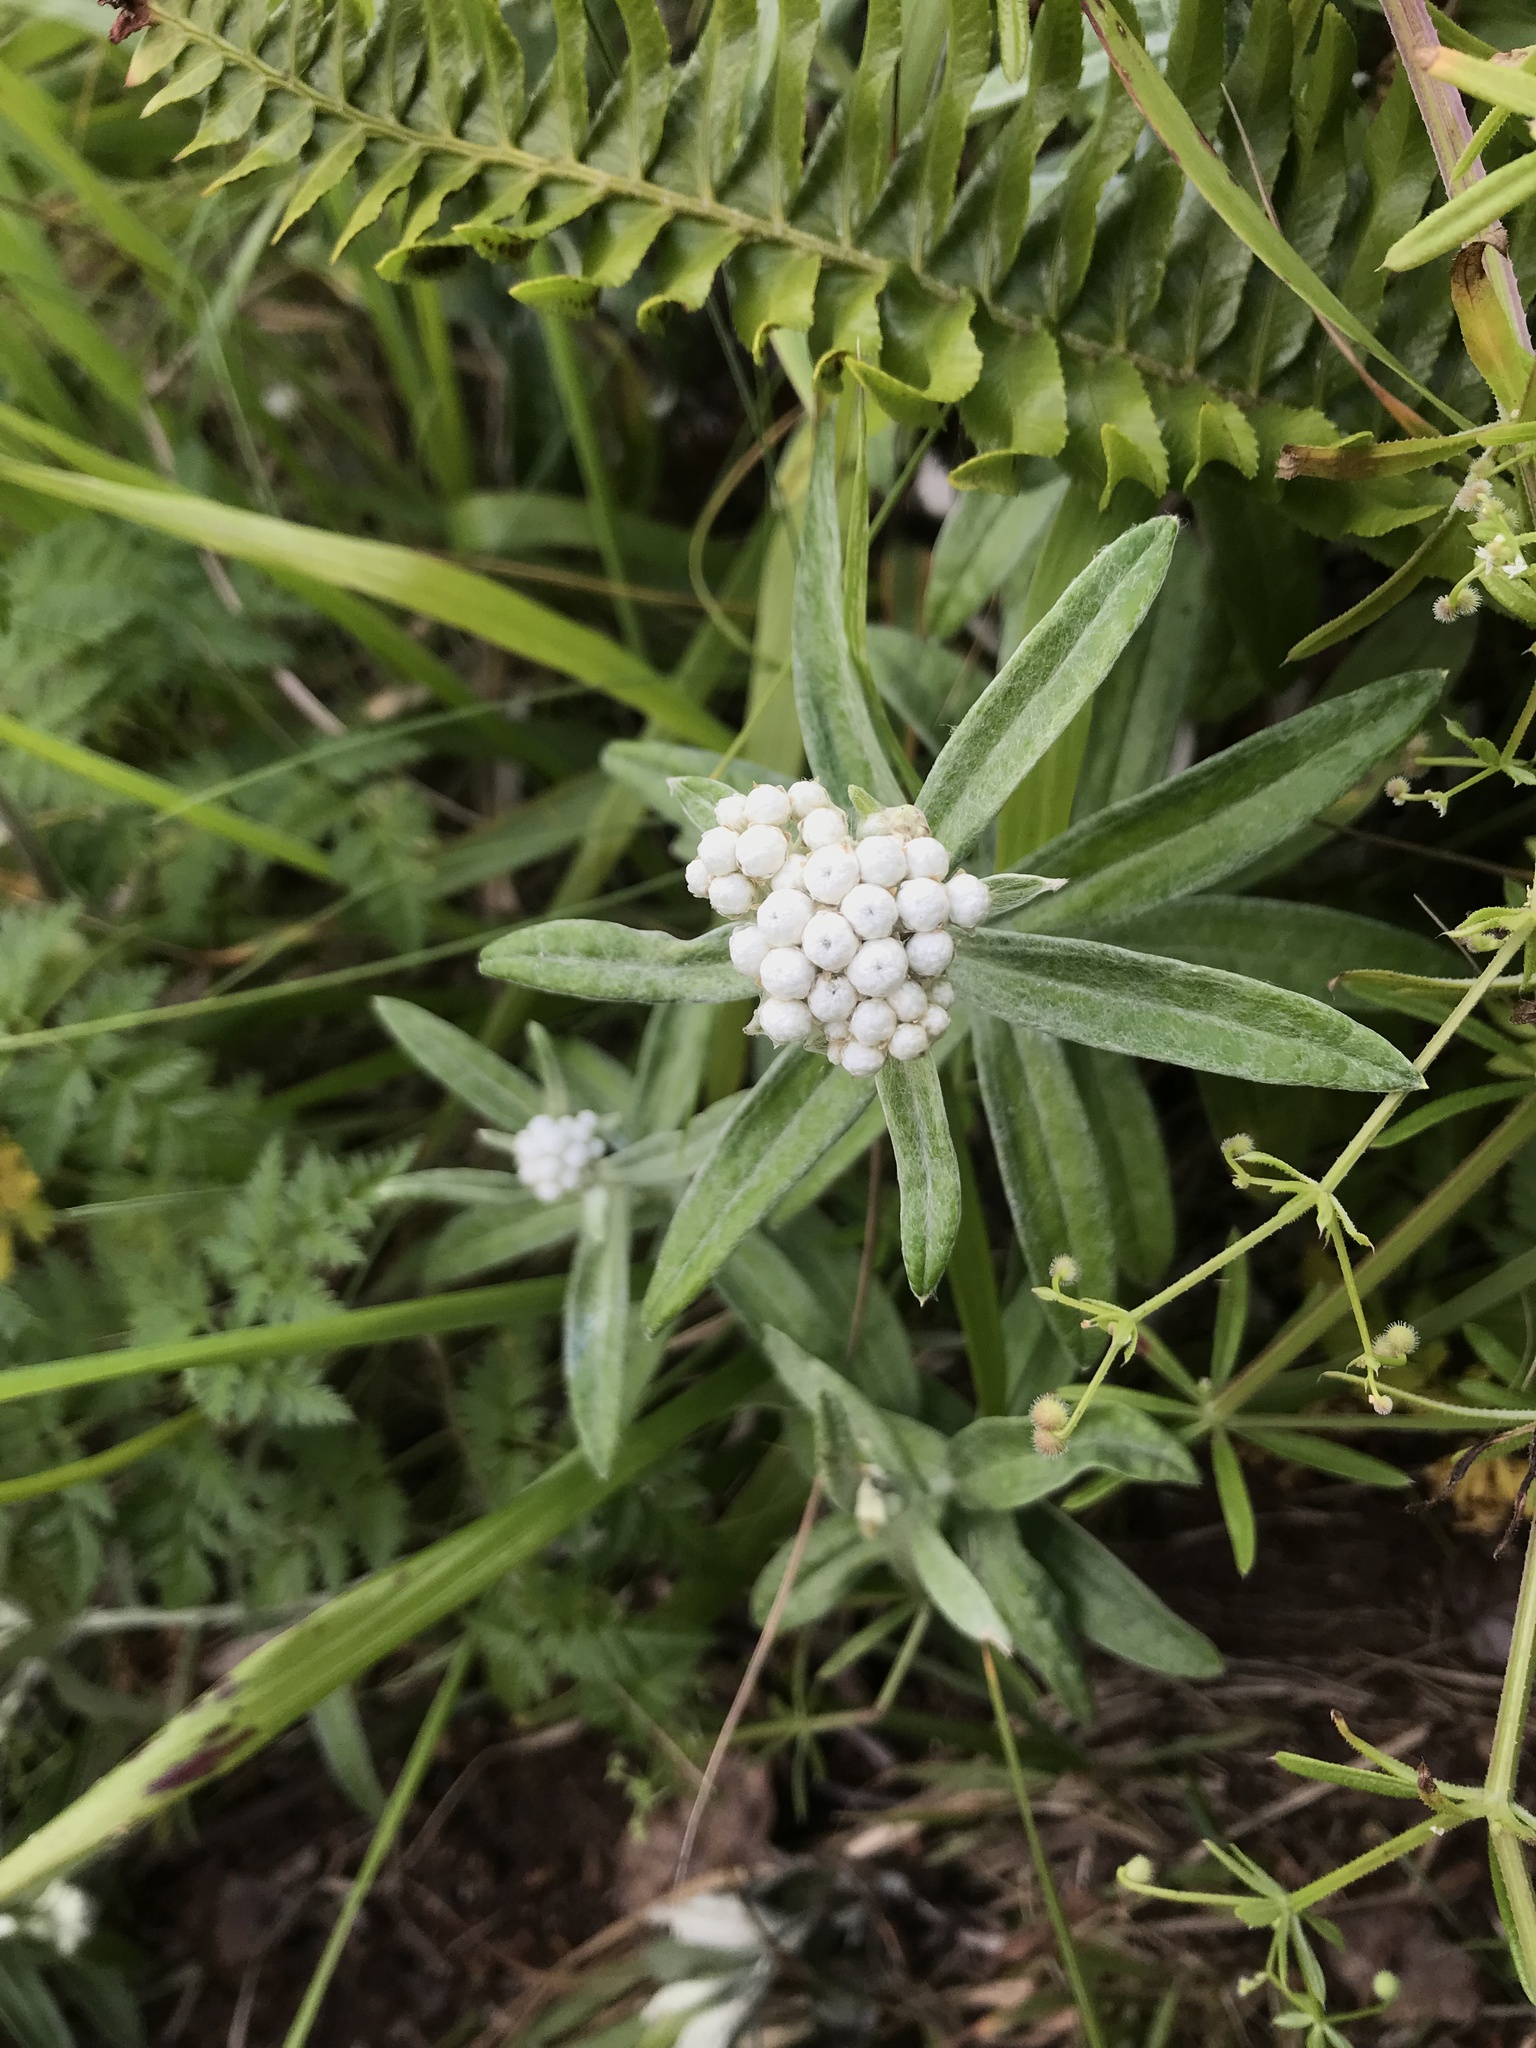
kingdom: Plantae
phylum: Tracheophyta
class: Magnoliopsida
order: Asterales
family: Asteraceae
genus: Anaphalis
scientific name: Anaphalis margaritacea
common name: Pearly everlasting
